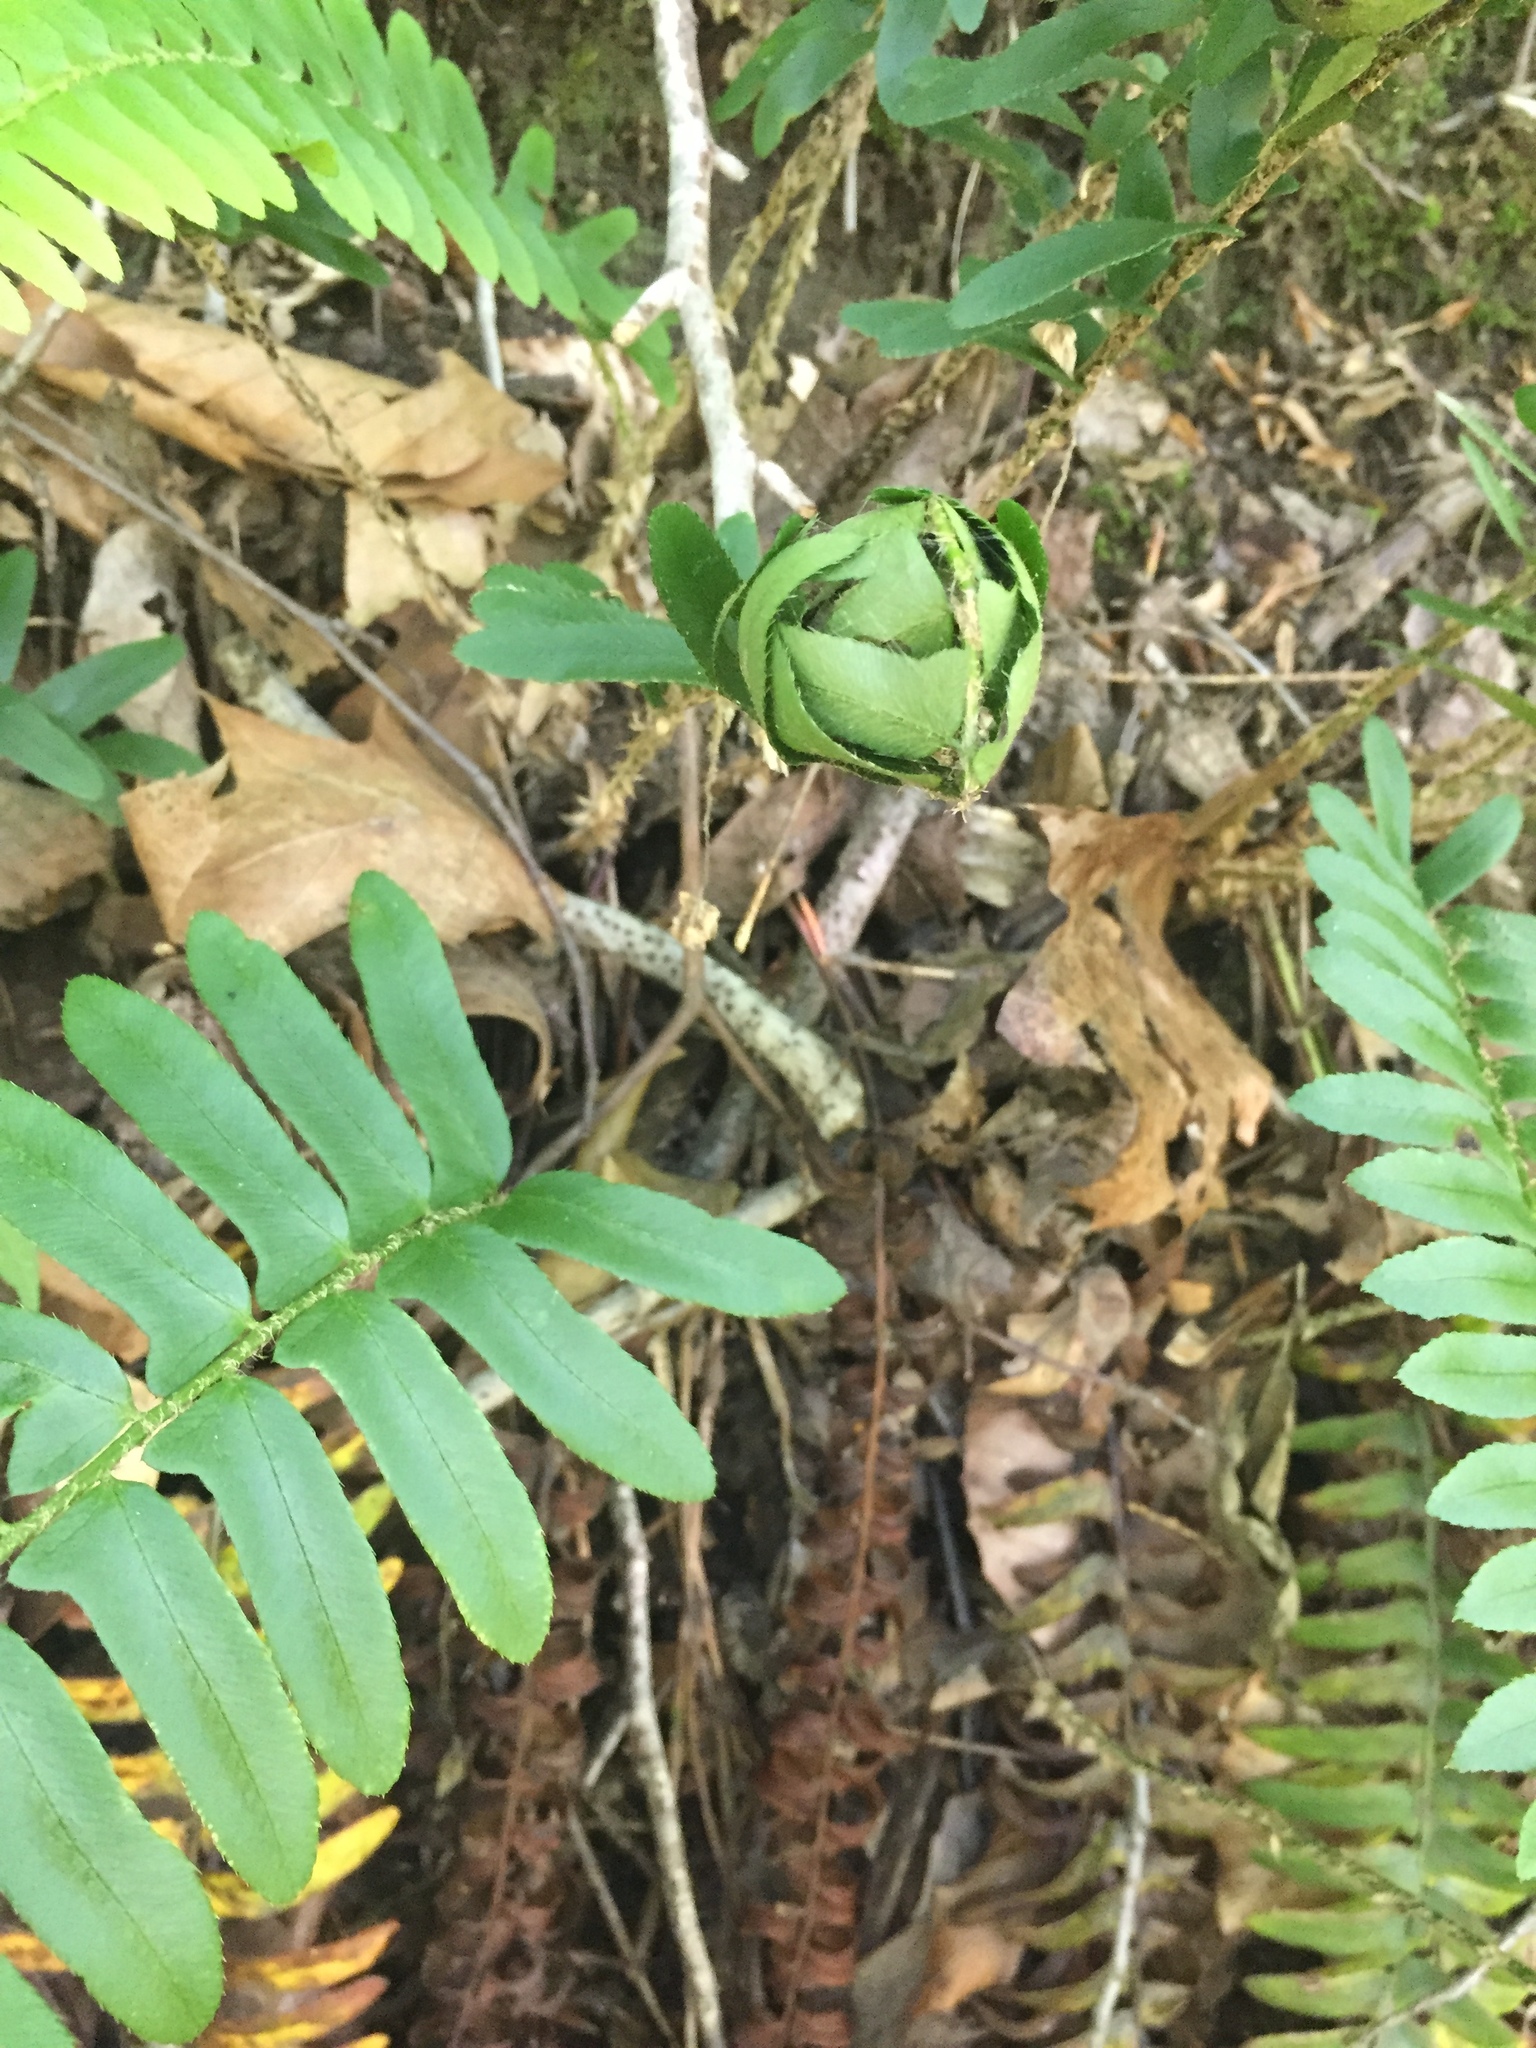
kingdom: Plantae
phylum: Tracheophyta
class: Polypodiopsida
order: Polypodiales
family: Dryopteridaceae
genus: Polystichum
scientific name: Polystichum acrostichoides
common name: Christmas fern
